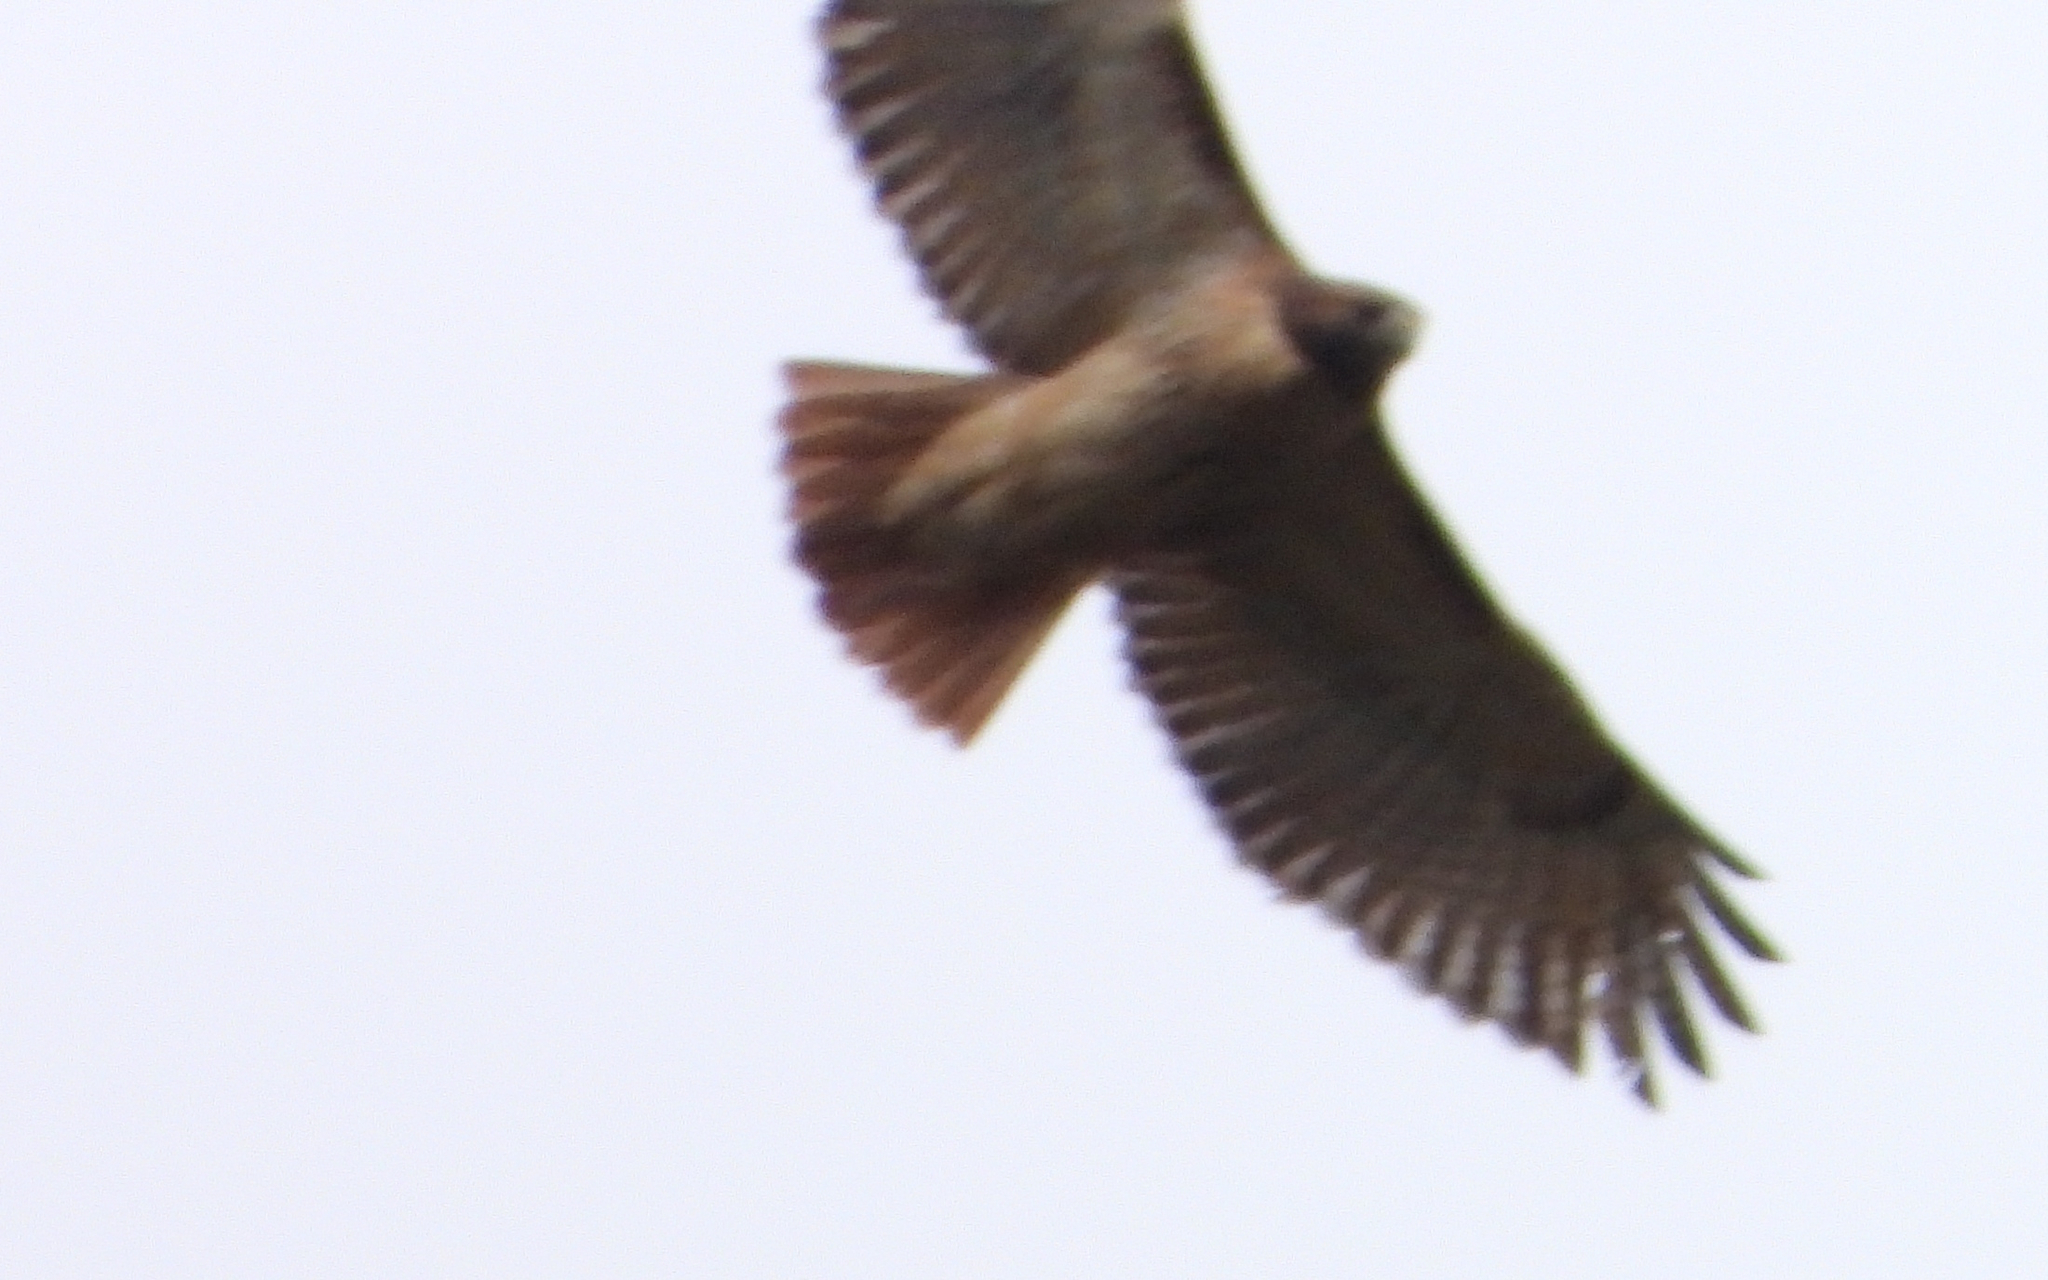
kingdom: Animalia
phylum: Chordata
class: Aves
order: Accipitriformes
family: Accipitridae
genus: Buteo
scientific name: Buteo jamaicensis
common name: Red-tailed hawk
